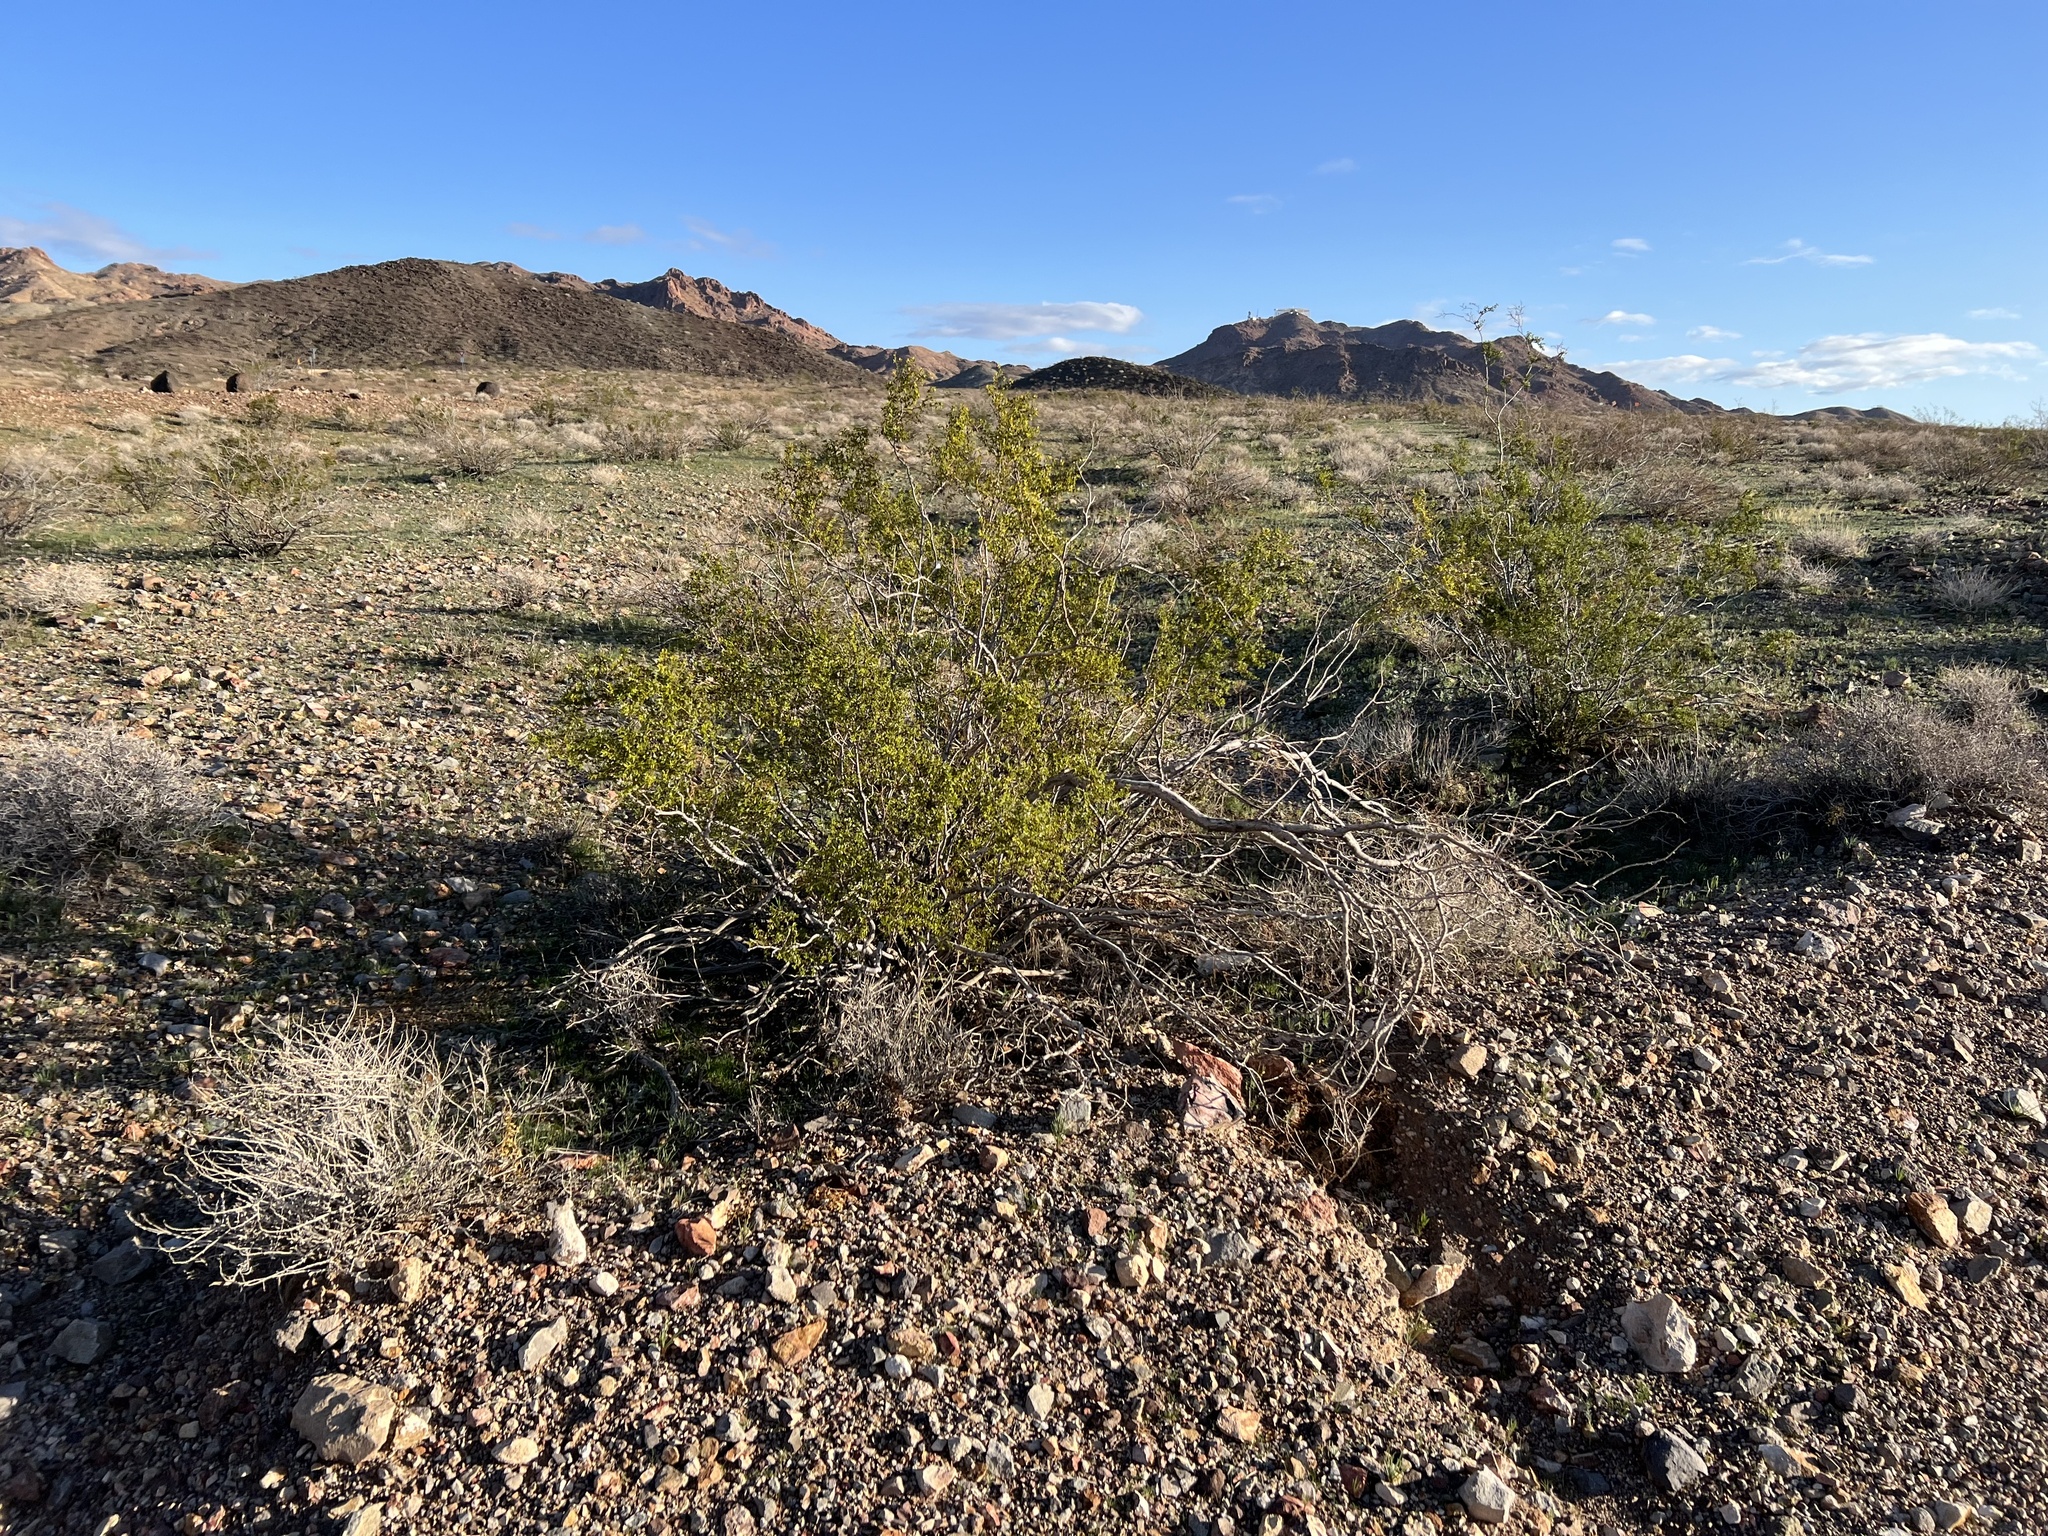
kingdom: Plantae
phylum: Tracheophyta
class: Magnoliopsida
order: Zygophyllales
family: Zygophyllaceae
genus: Larrea
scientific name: Larrea tridentata
